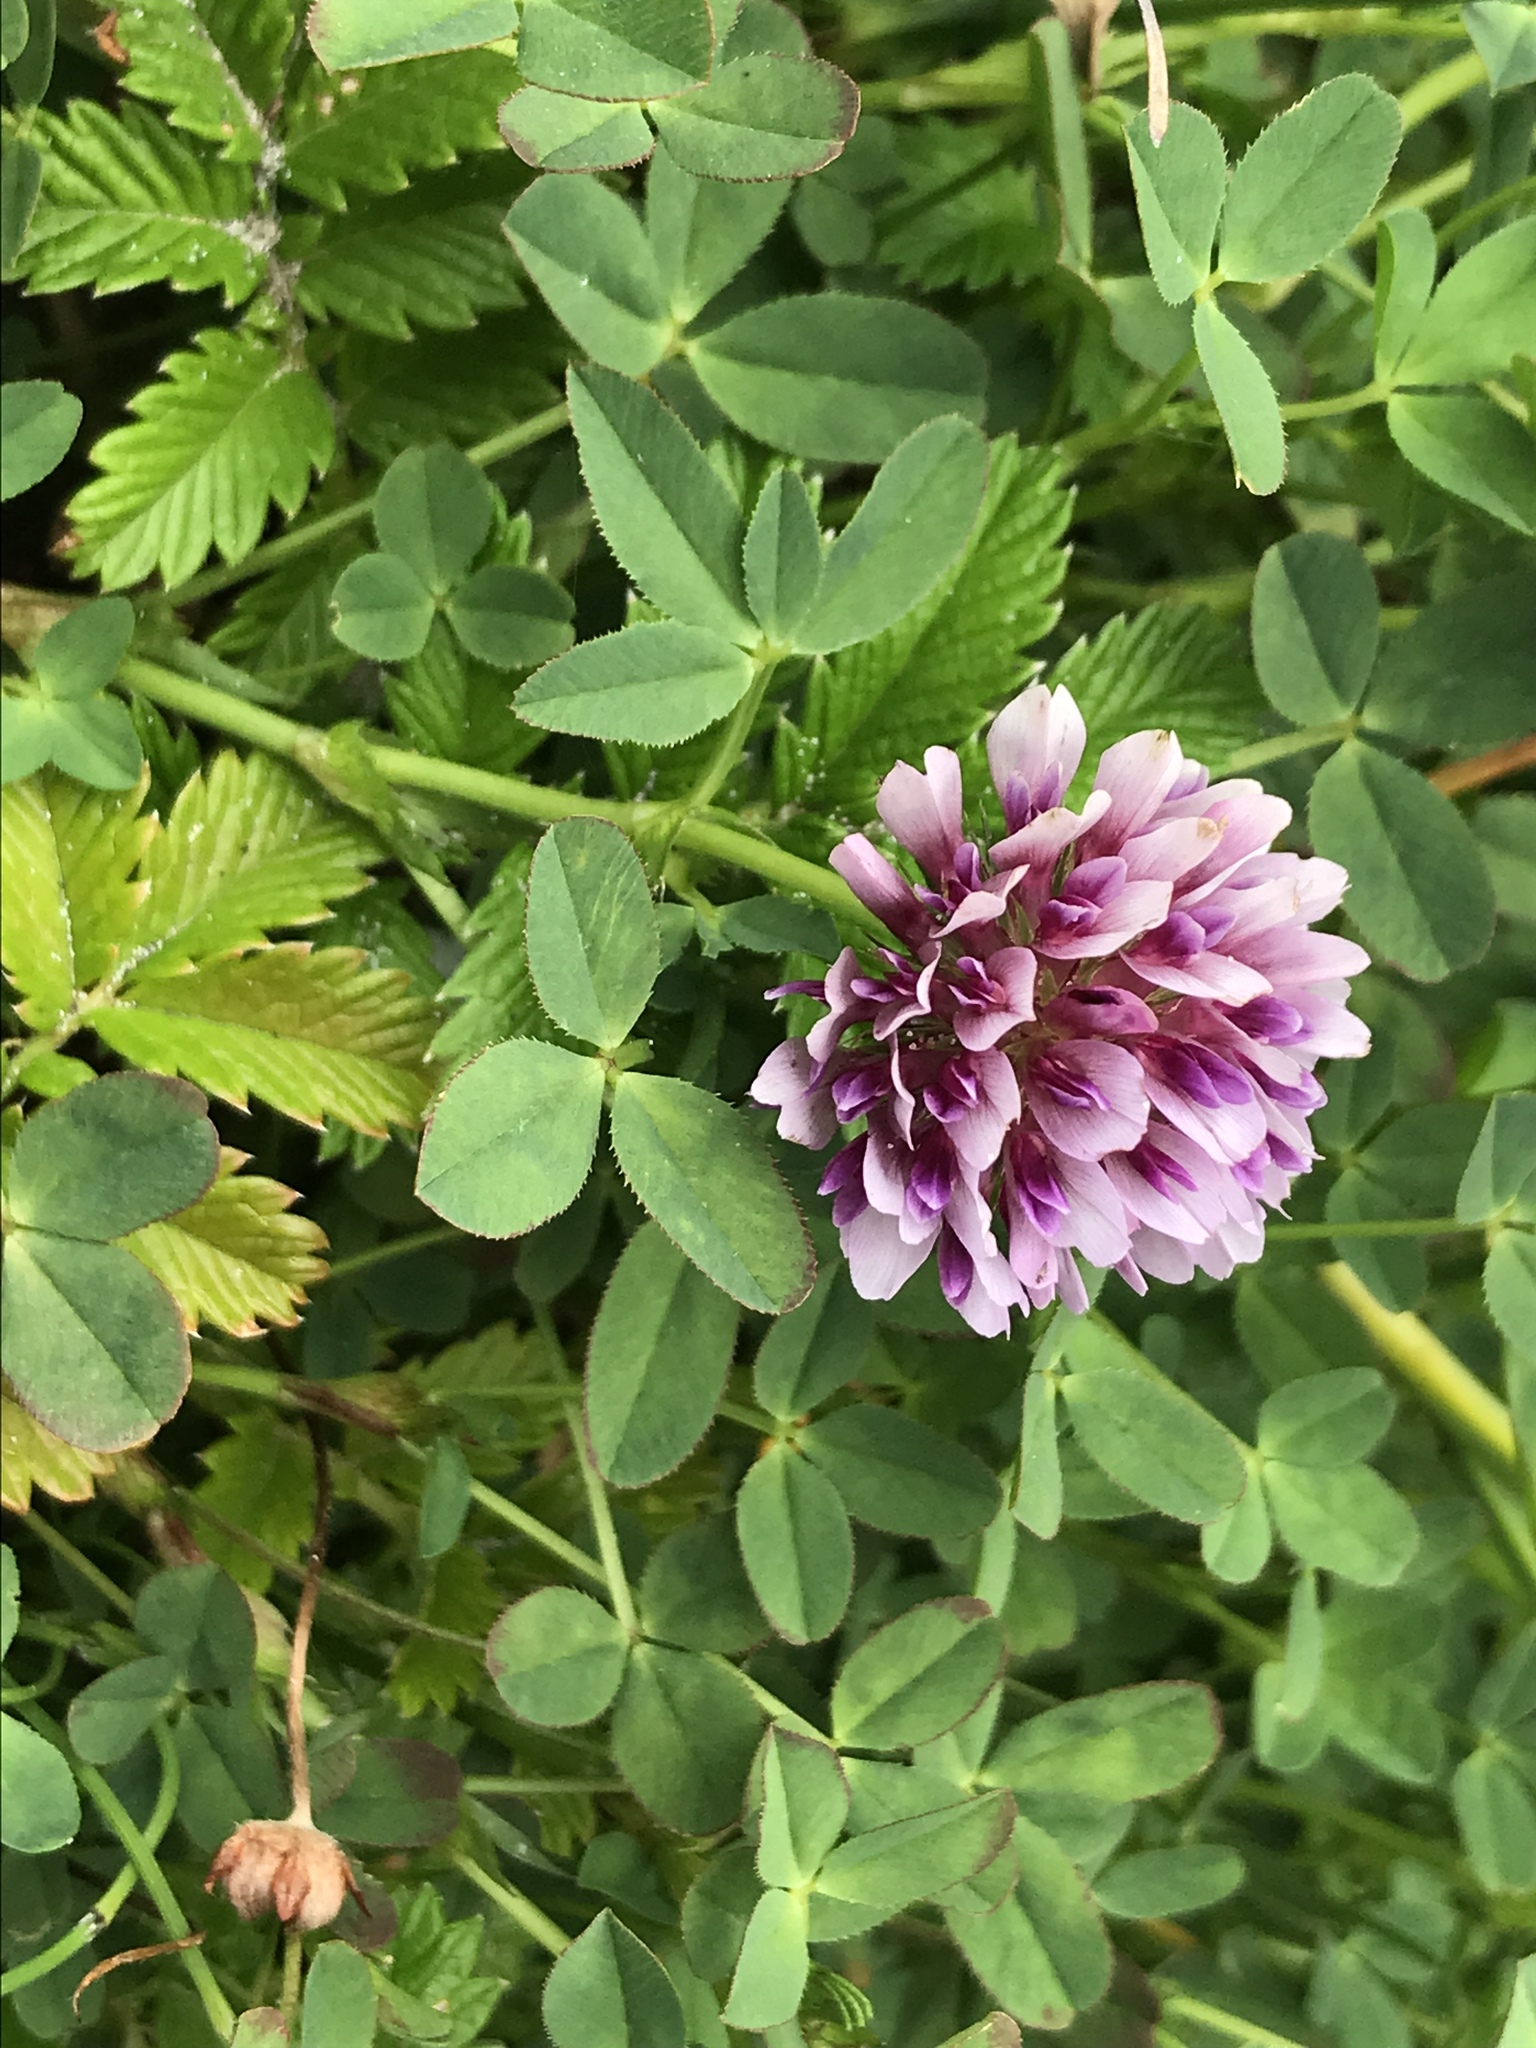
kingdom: Plantae
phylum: Tracheophyta
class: Magnoliopsida
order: Fabales
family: Fabaceae
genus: Trifolium
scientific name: Trifolium wormskioldii
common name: Springbank clover
